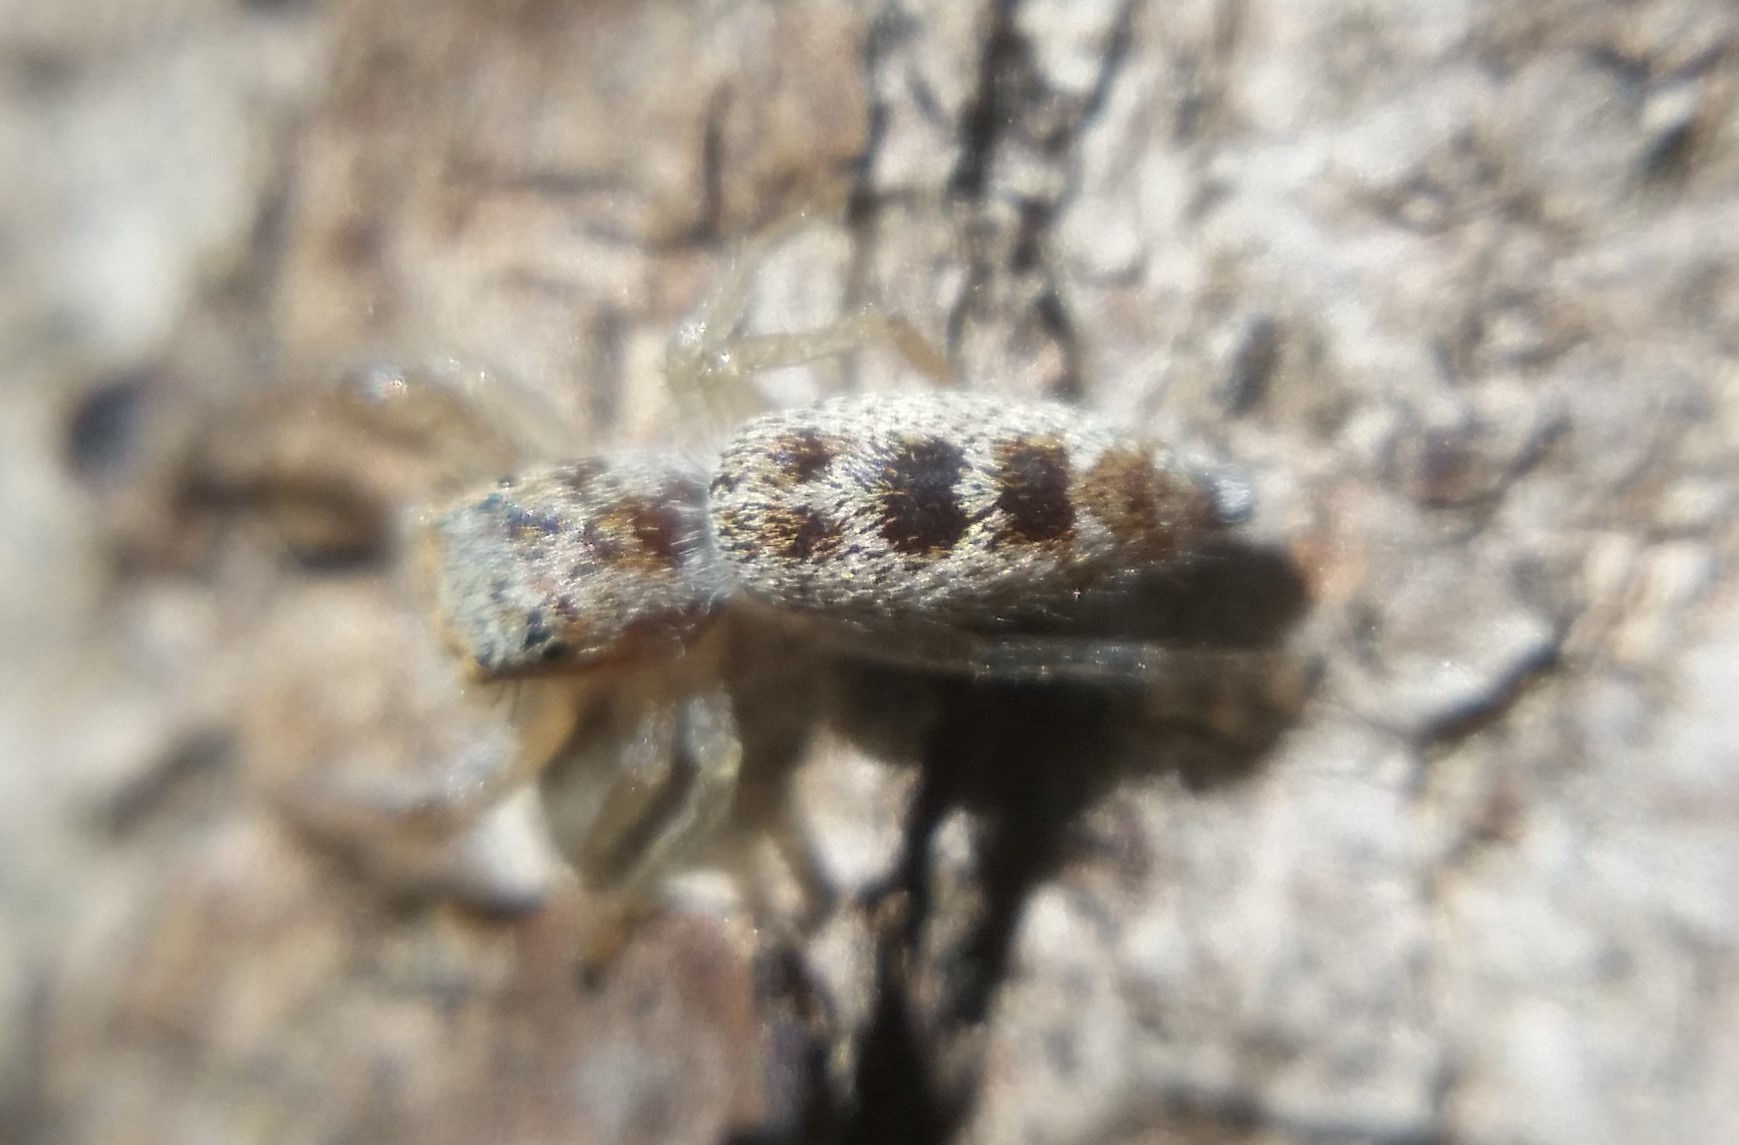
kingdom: Animalia
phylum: Arthropoda
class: Arachnida
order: Araneae
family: Salticidae
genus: Hentzia
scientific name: Hentzia mitrata
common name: White-jawed jumping spider
